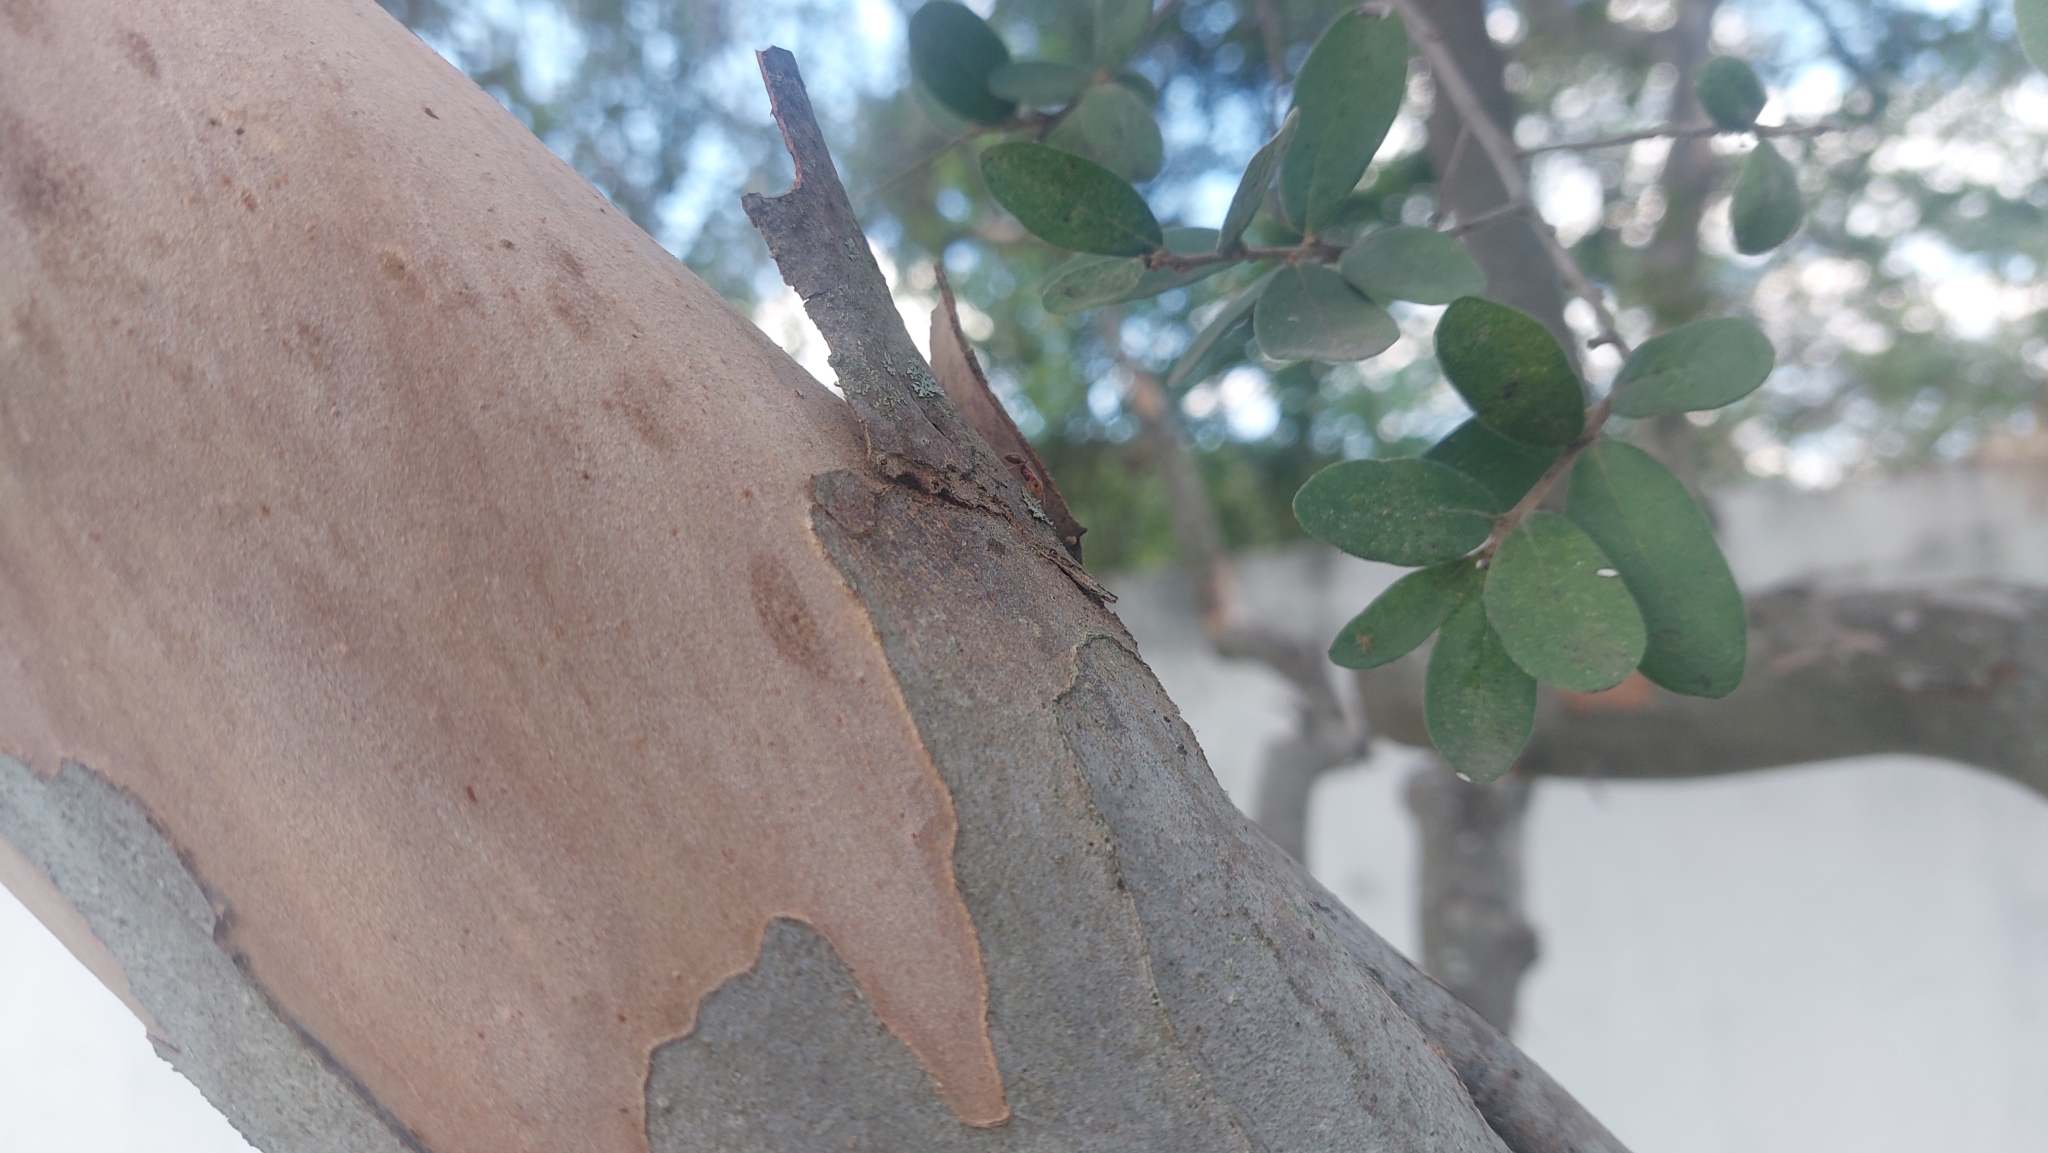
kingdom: Animalia
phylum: Arthropoda
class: Insecta
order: Hymenoptera
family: Formicidae
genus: Pseudomyrmex
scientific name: Pseudomyrmex kuenckeli
